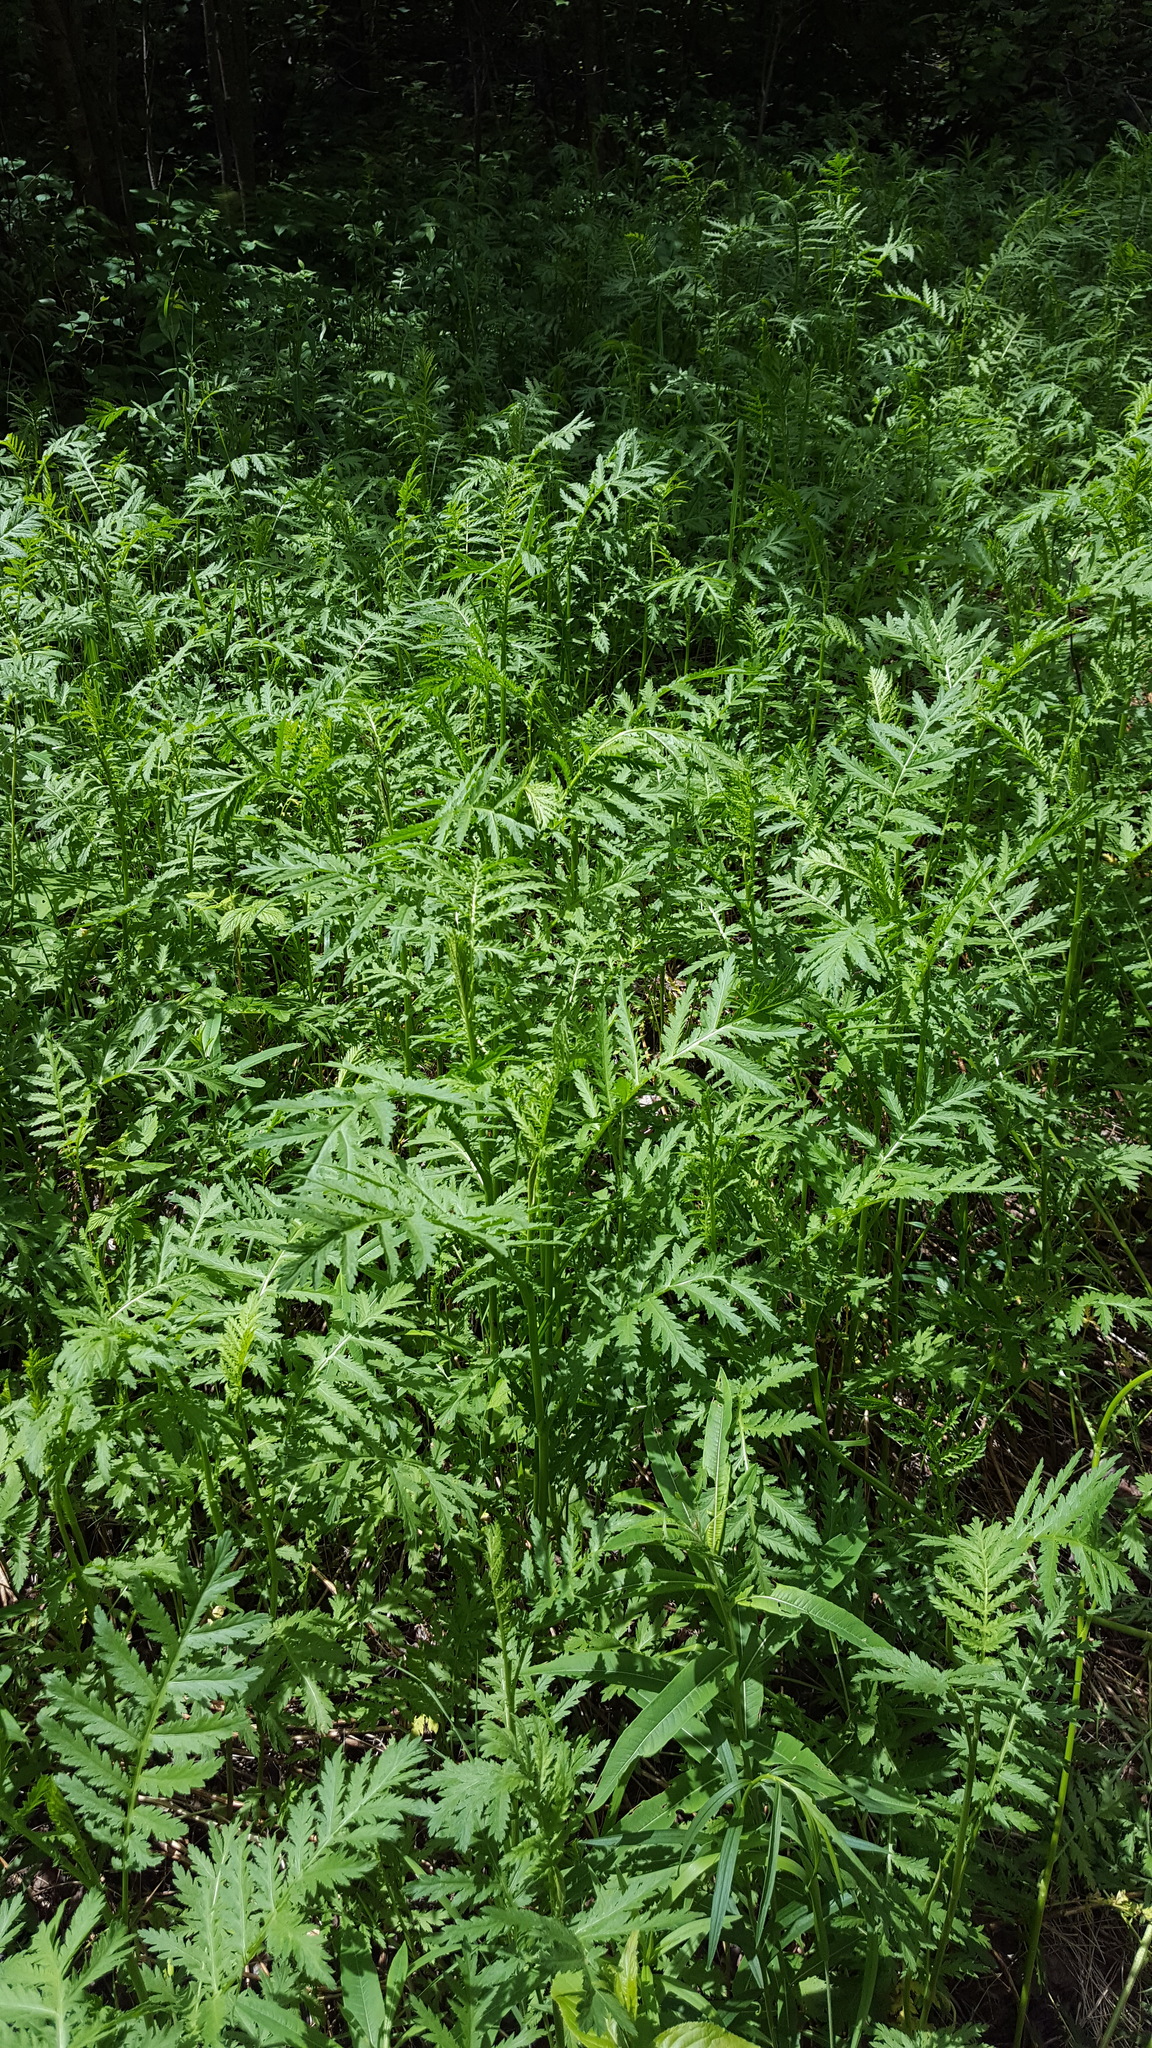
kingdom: Plantae
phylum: Tracheophyta
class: Magnoliopsida
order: Asterales
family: Asteraceae
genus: Tanacetum
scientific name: Tanacetum vulgare
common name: Common tansy
